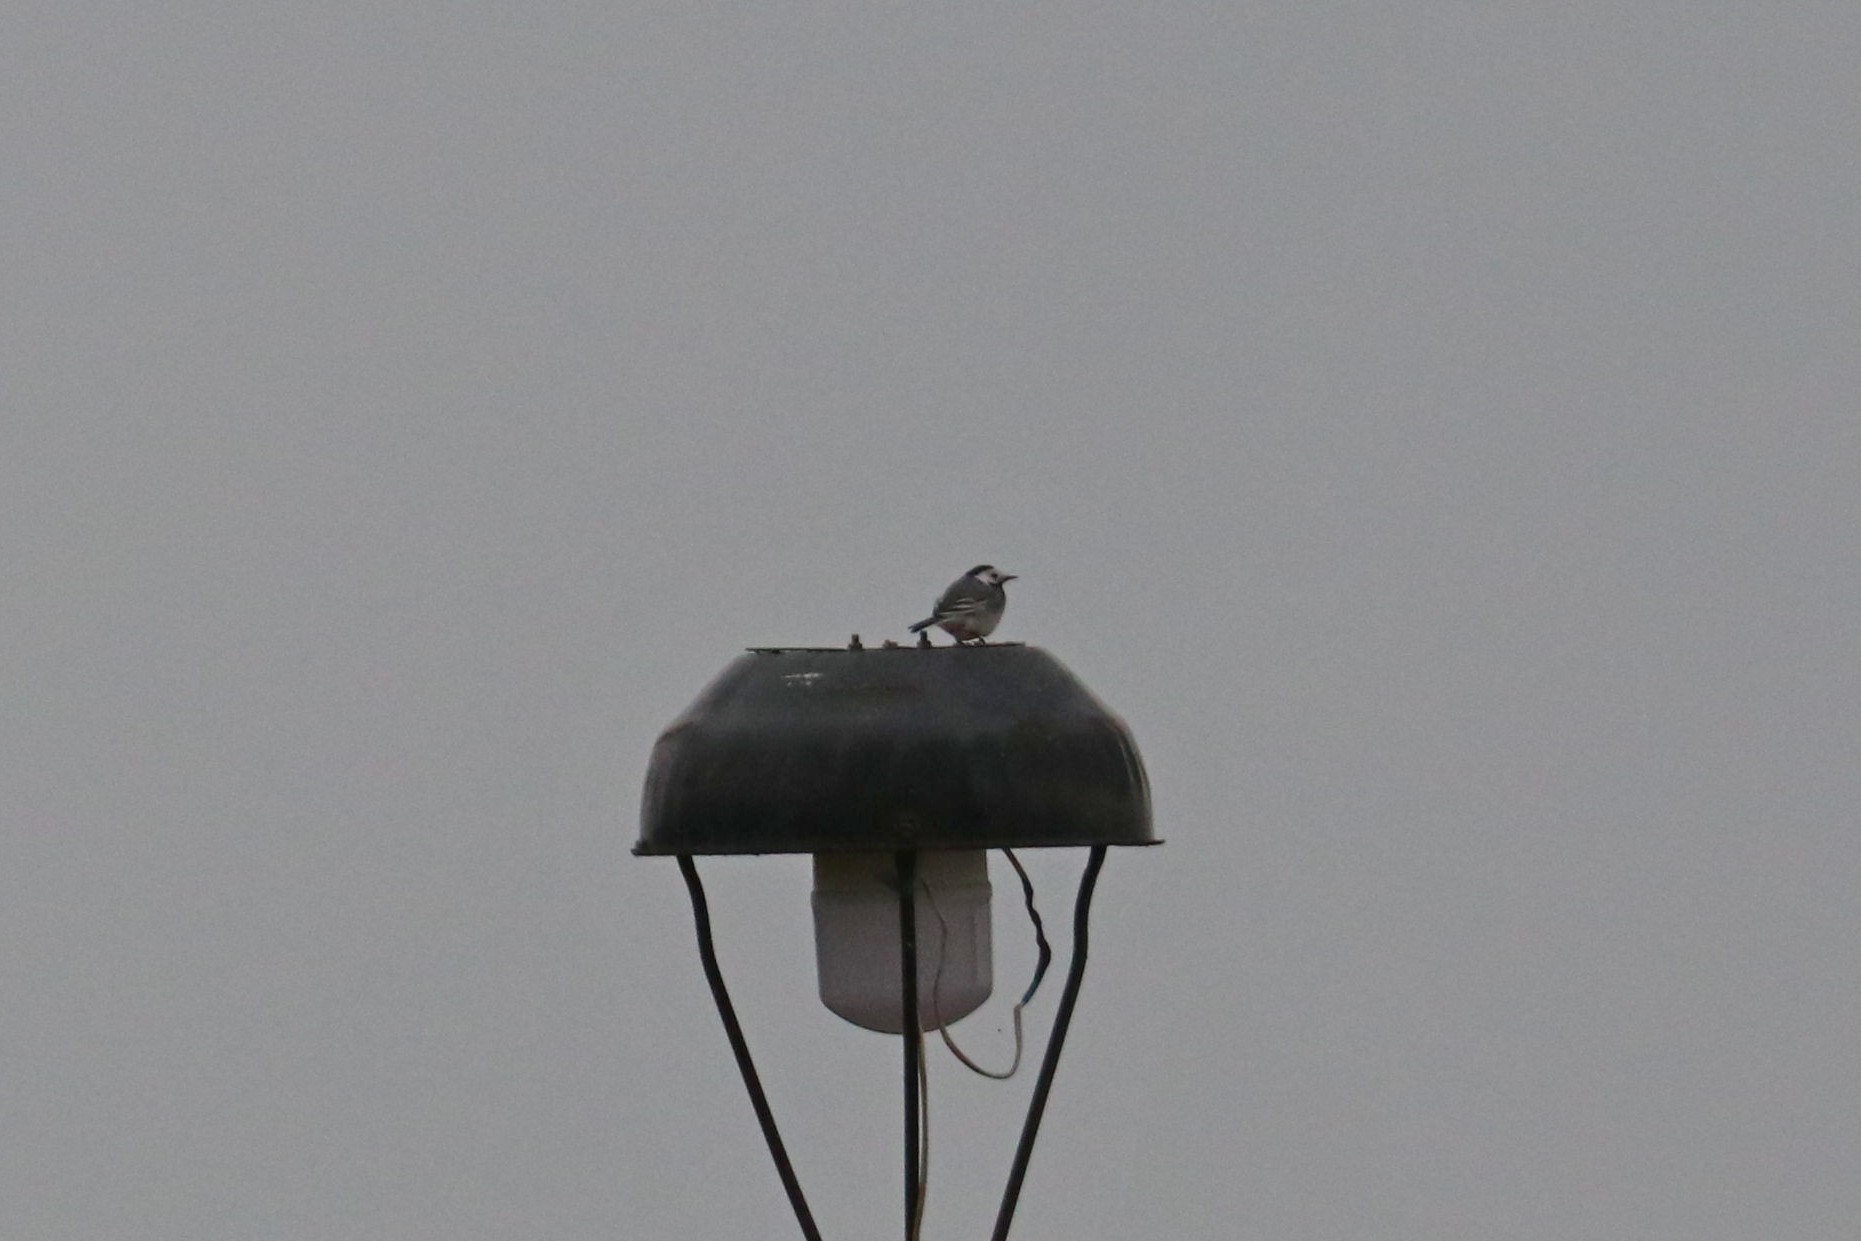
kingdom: Animalia
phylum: Chordata
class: Aves
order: Passeriformes
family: Motacillidae
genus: Motacilla
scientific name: Motacilla alba
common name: White wagtail
